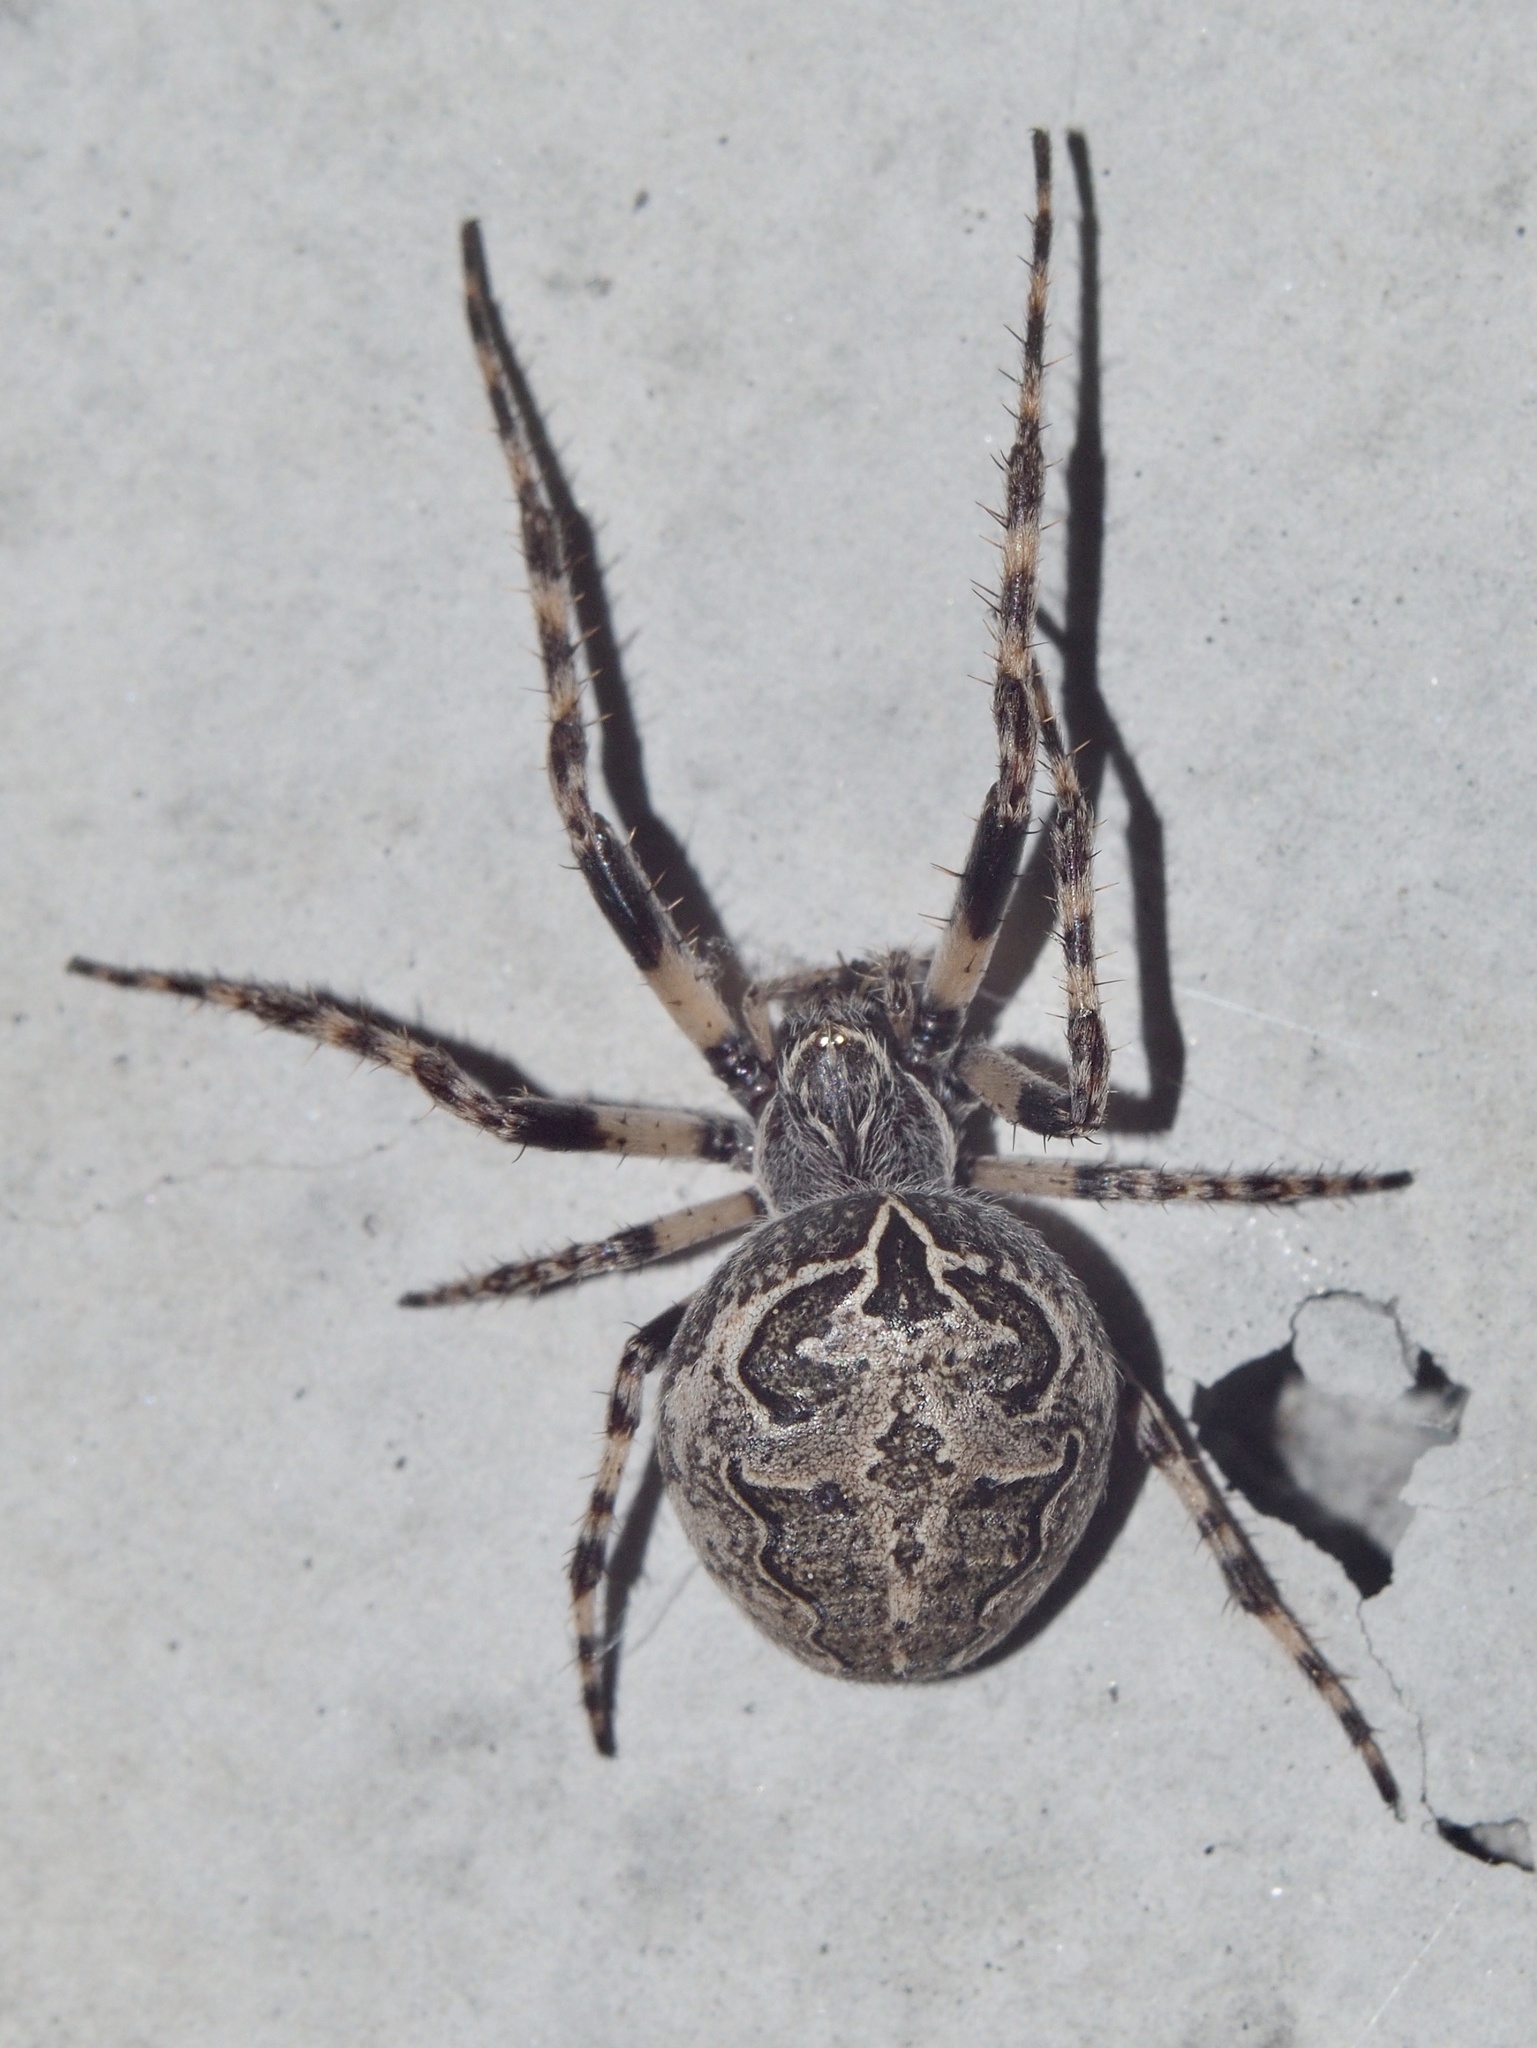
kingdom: Animalia
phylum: Arthropoda
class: Arachnida
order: Araneae
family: Araneidae
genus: Larinioides
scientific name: Larinioides sclopetarius
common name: Bridge orbweaver
